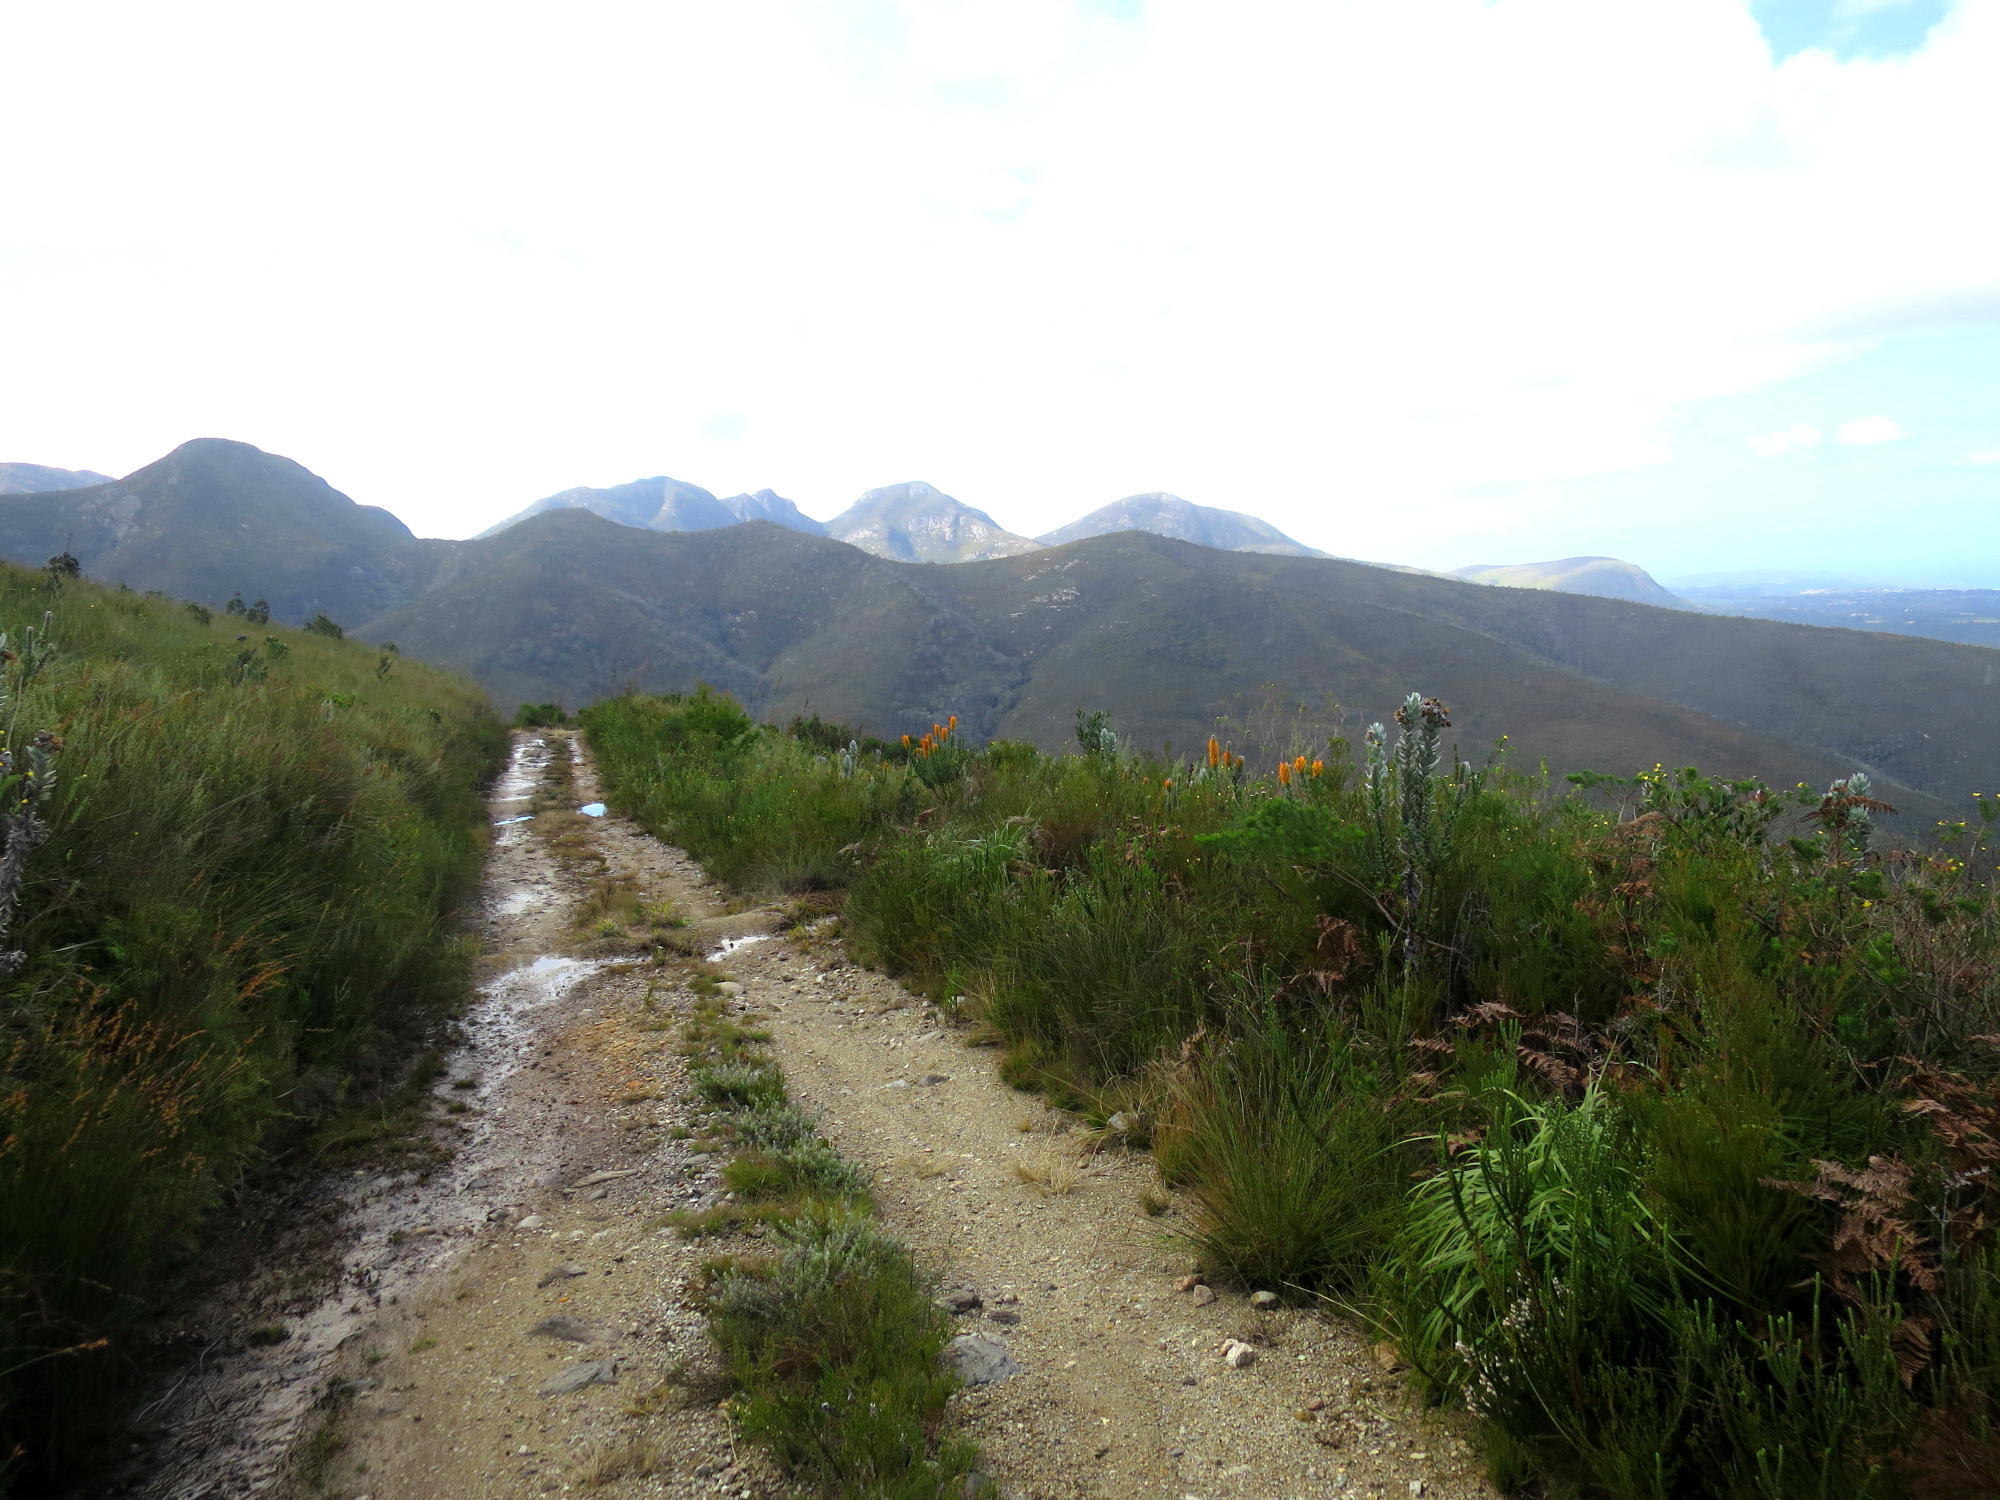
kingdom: Plantae
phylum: Tracheophyta
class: Magnoliopsida
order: Proteales
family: Proteaceae
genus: Mimetes
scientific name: Mimetes pauciflora
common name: Three-flowered pagoda
